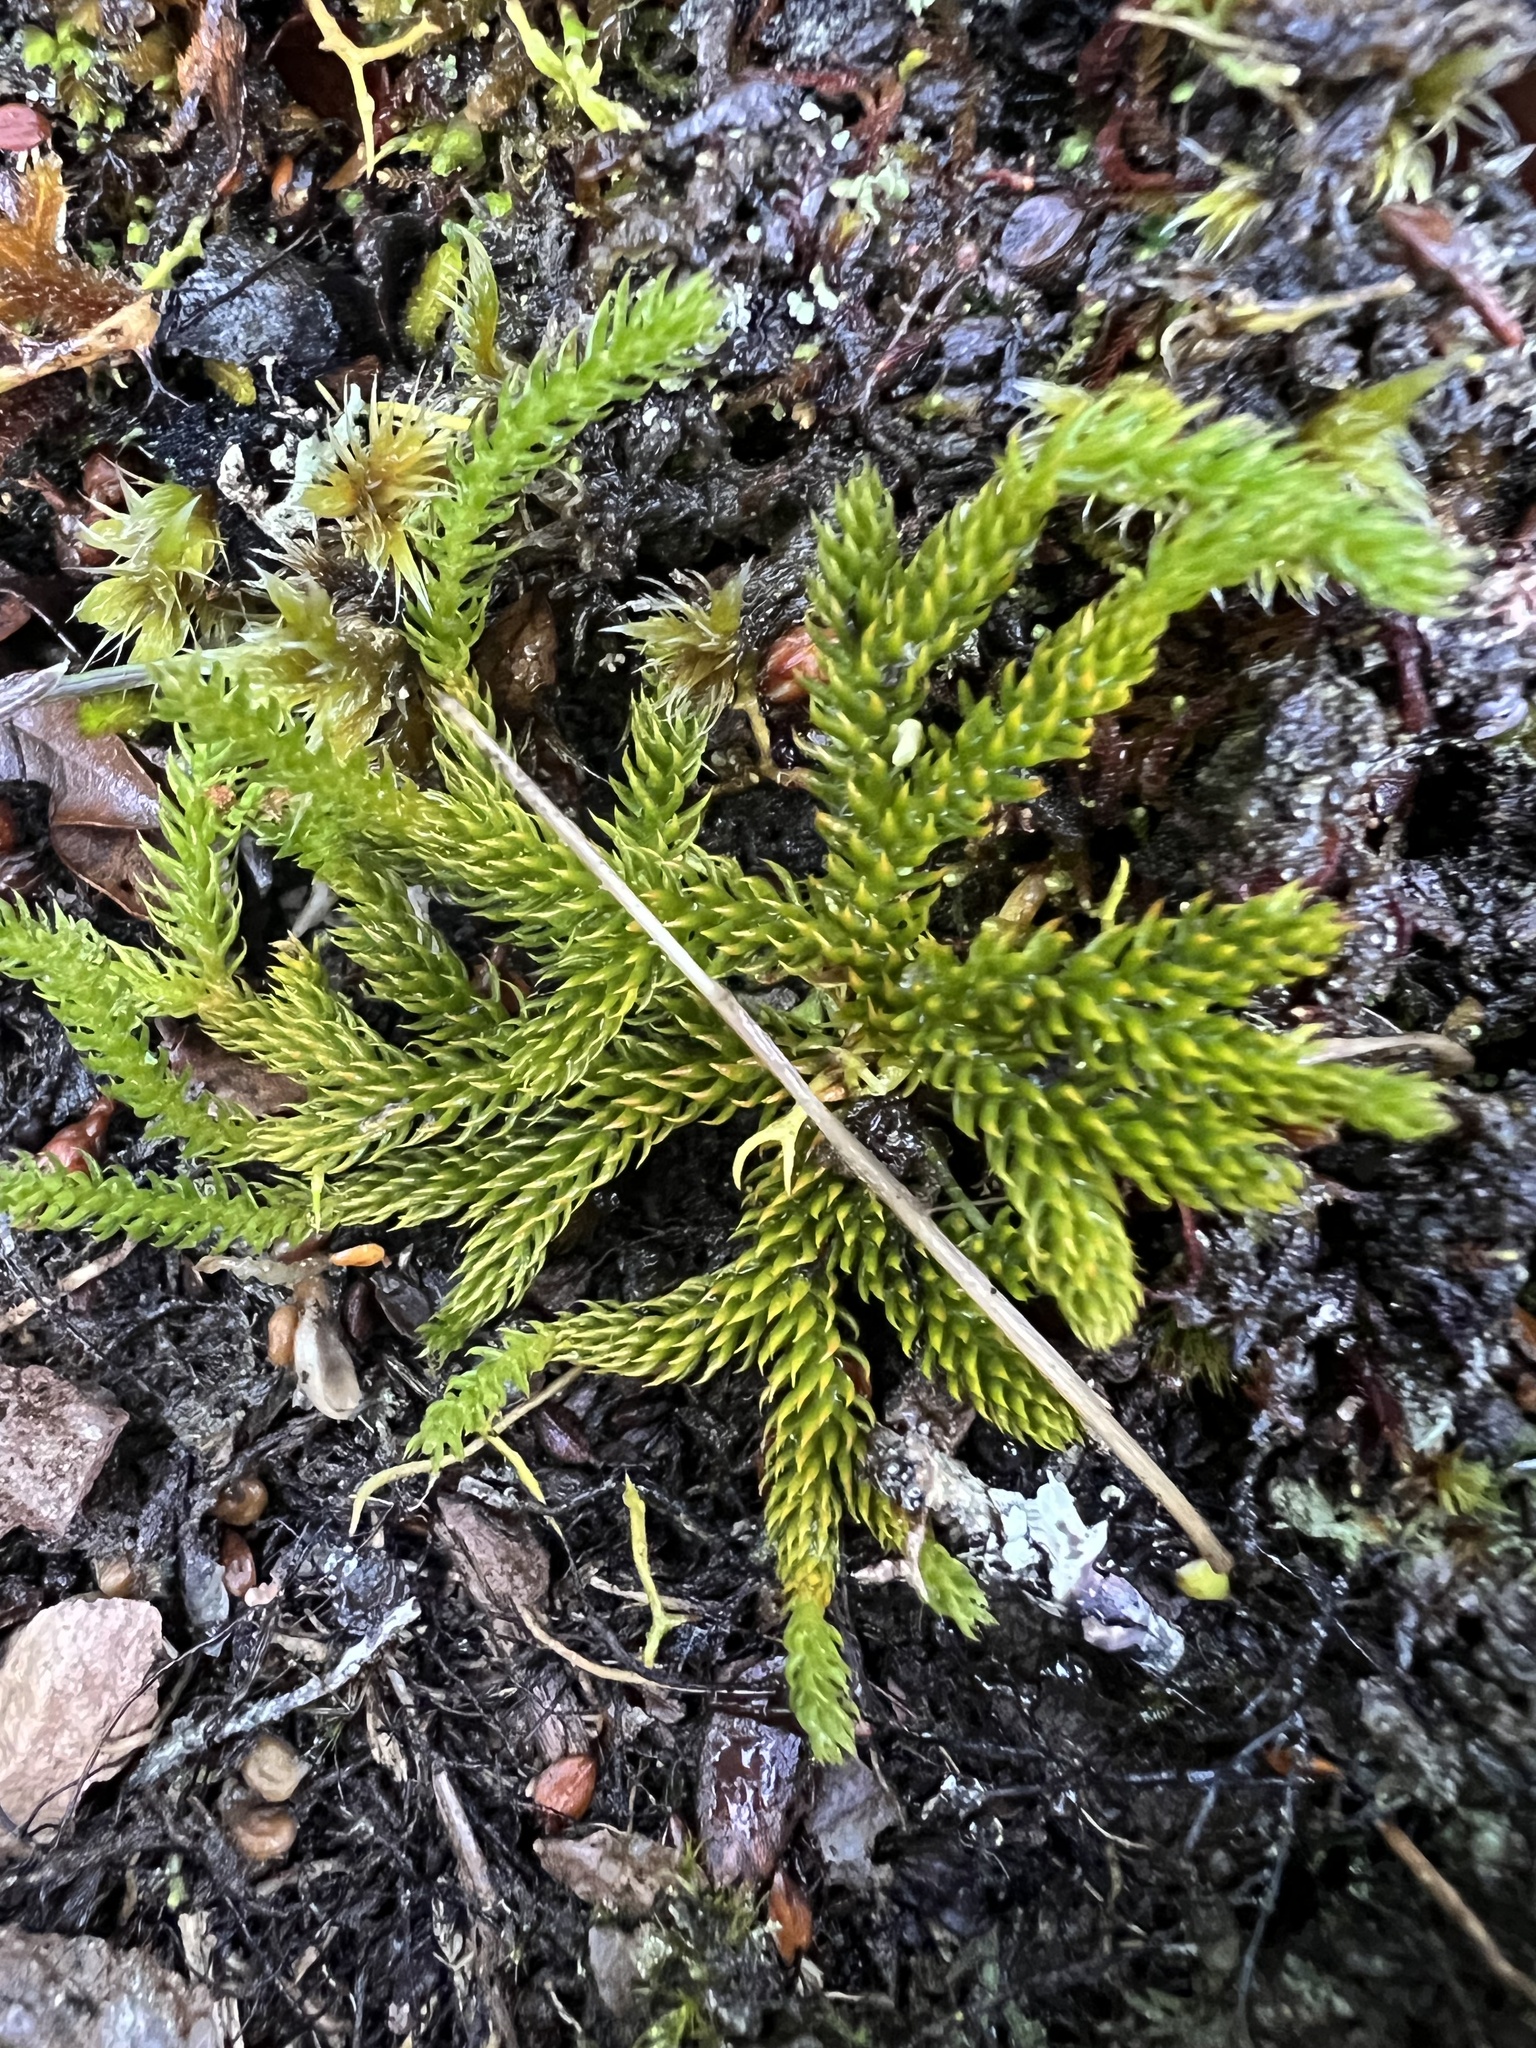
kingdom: Plantae
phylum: Tracheophyta
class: Lycopodiopsida
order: Lycopodiales
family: Lycopodiaceae
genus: Austrolycopodium
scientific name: Austrolycopodium fastigiatum
